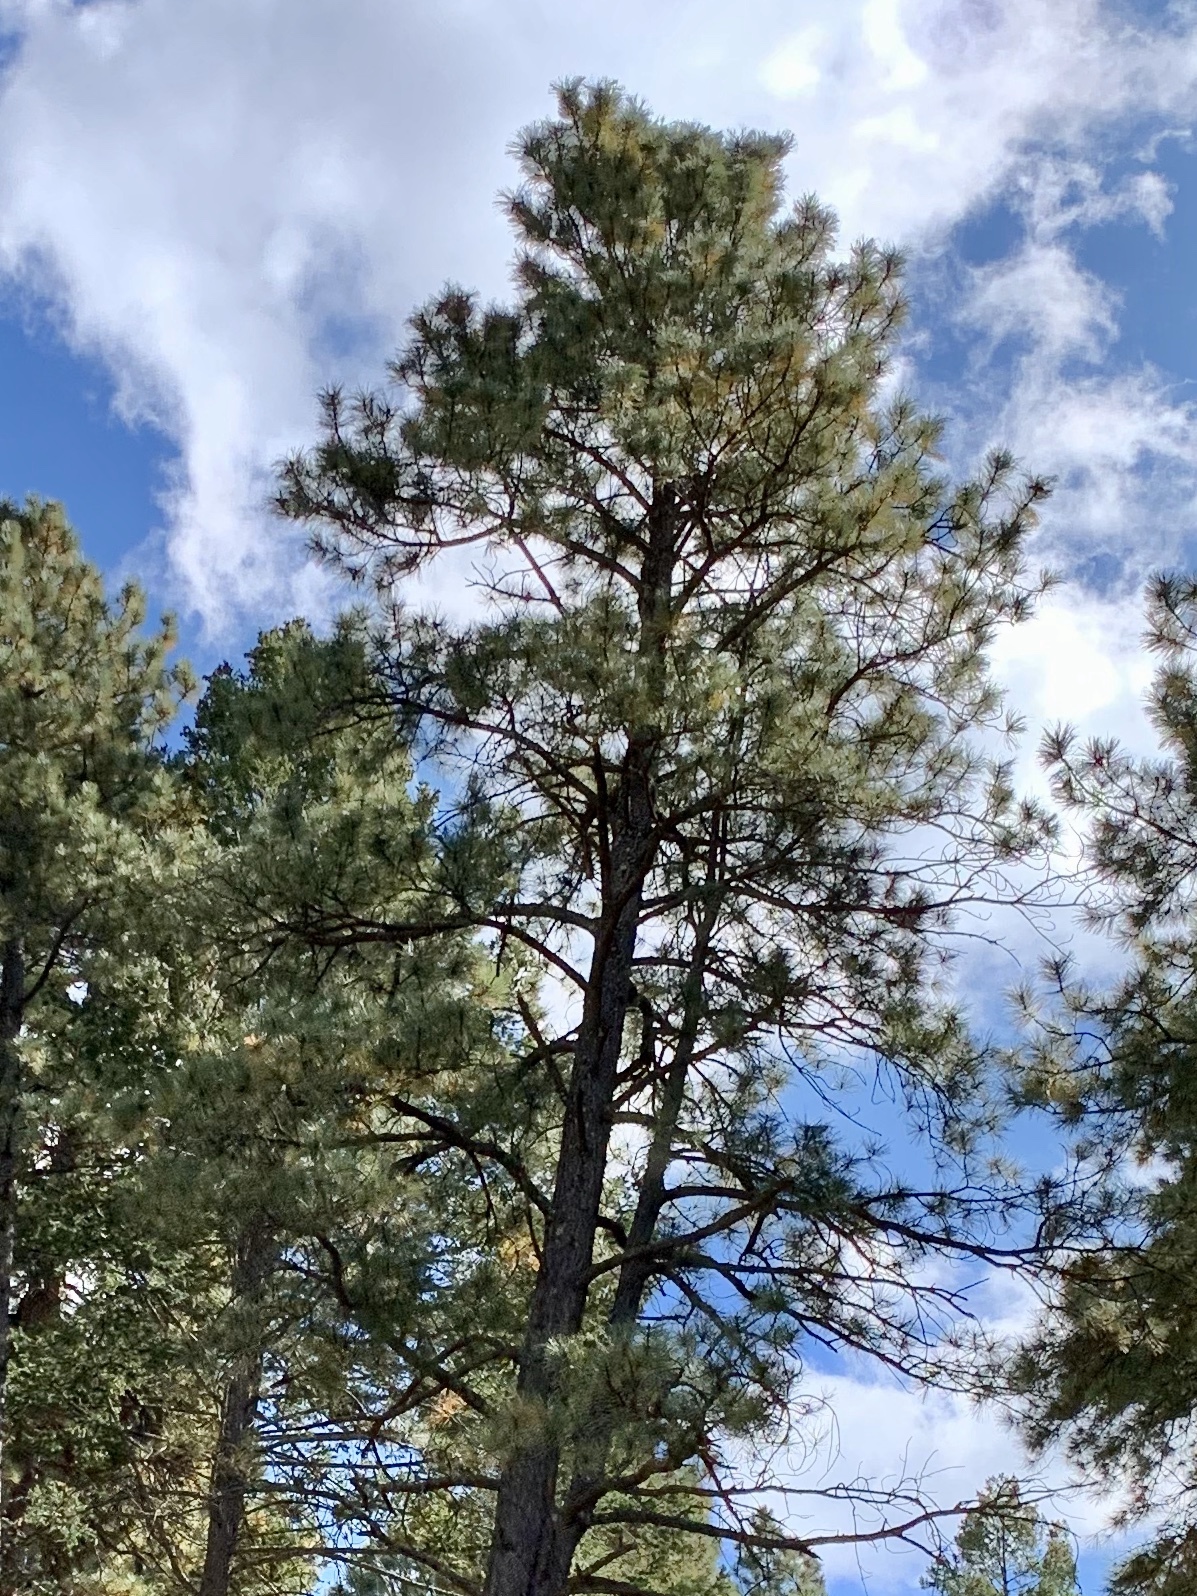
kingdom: Plantae
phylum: Tracheophyta
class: Pinopsida
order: Pinales
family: Pinaceae
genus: Pinus
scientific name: Pinus ponderosa
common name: Western yellow-pine
